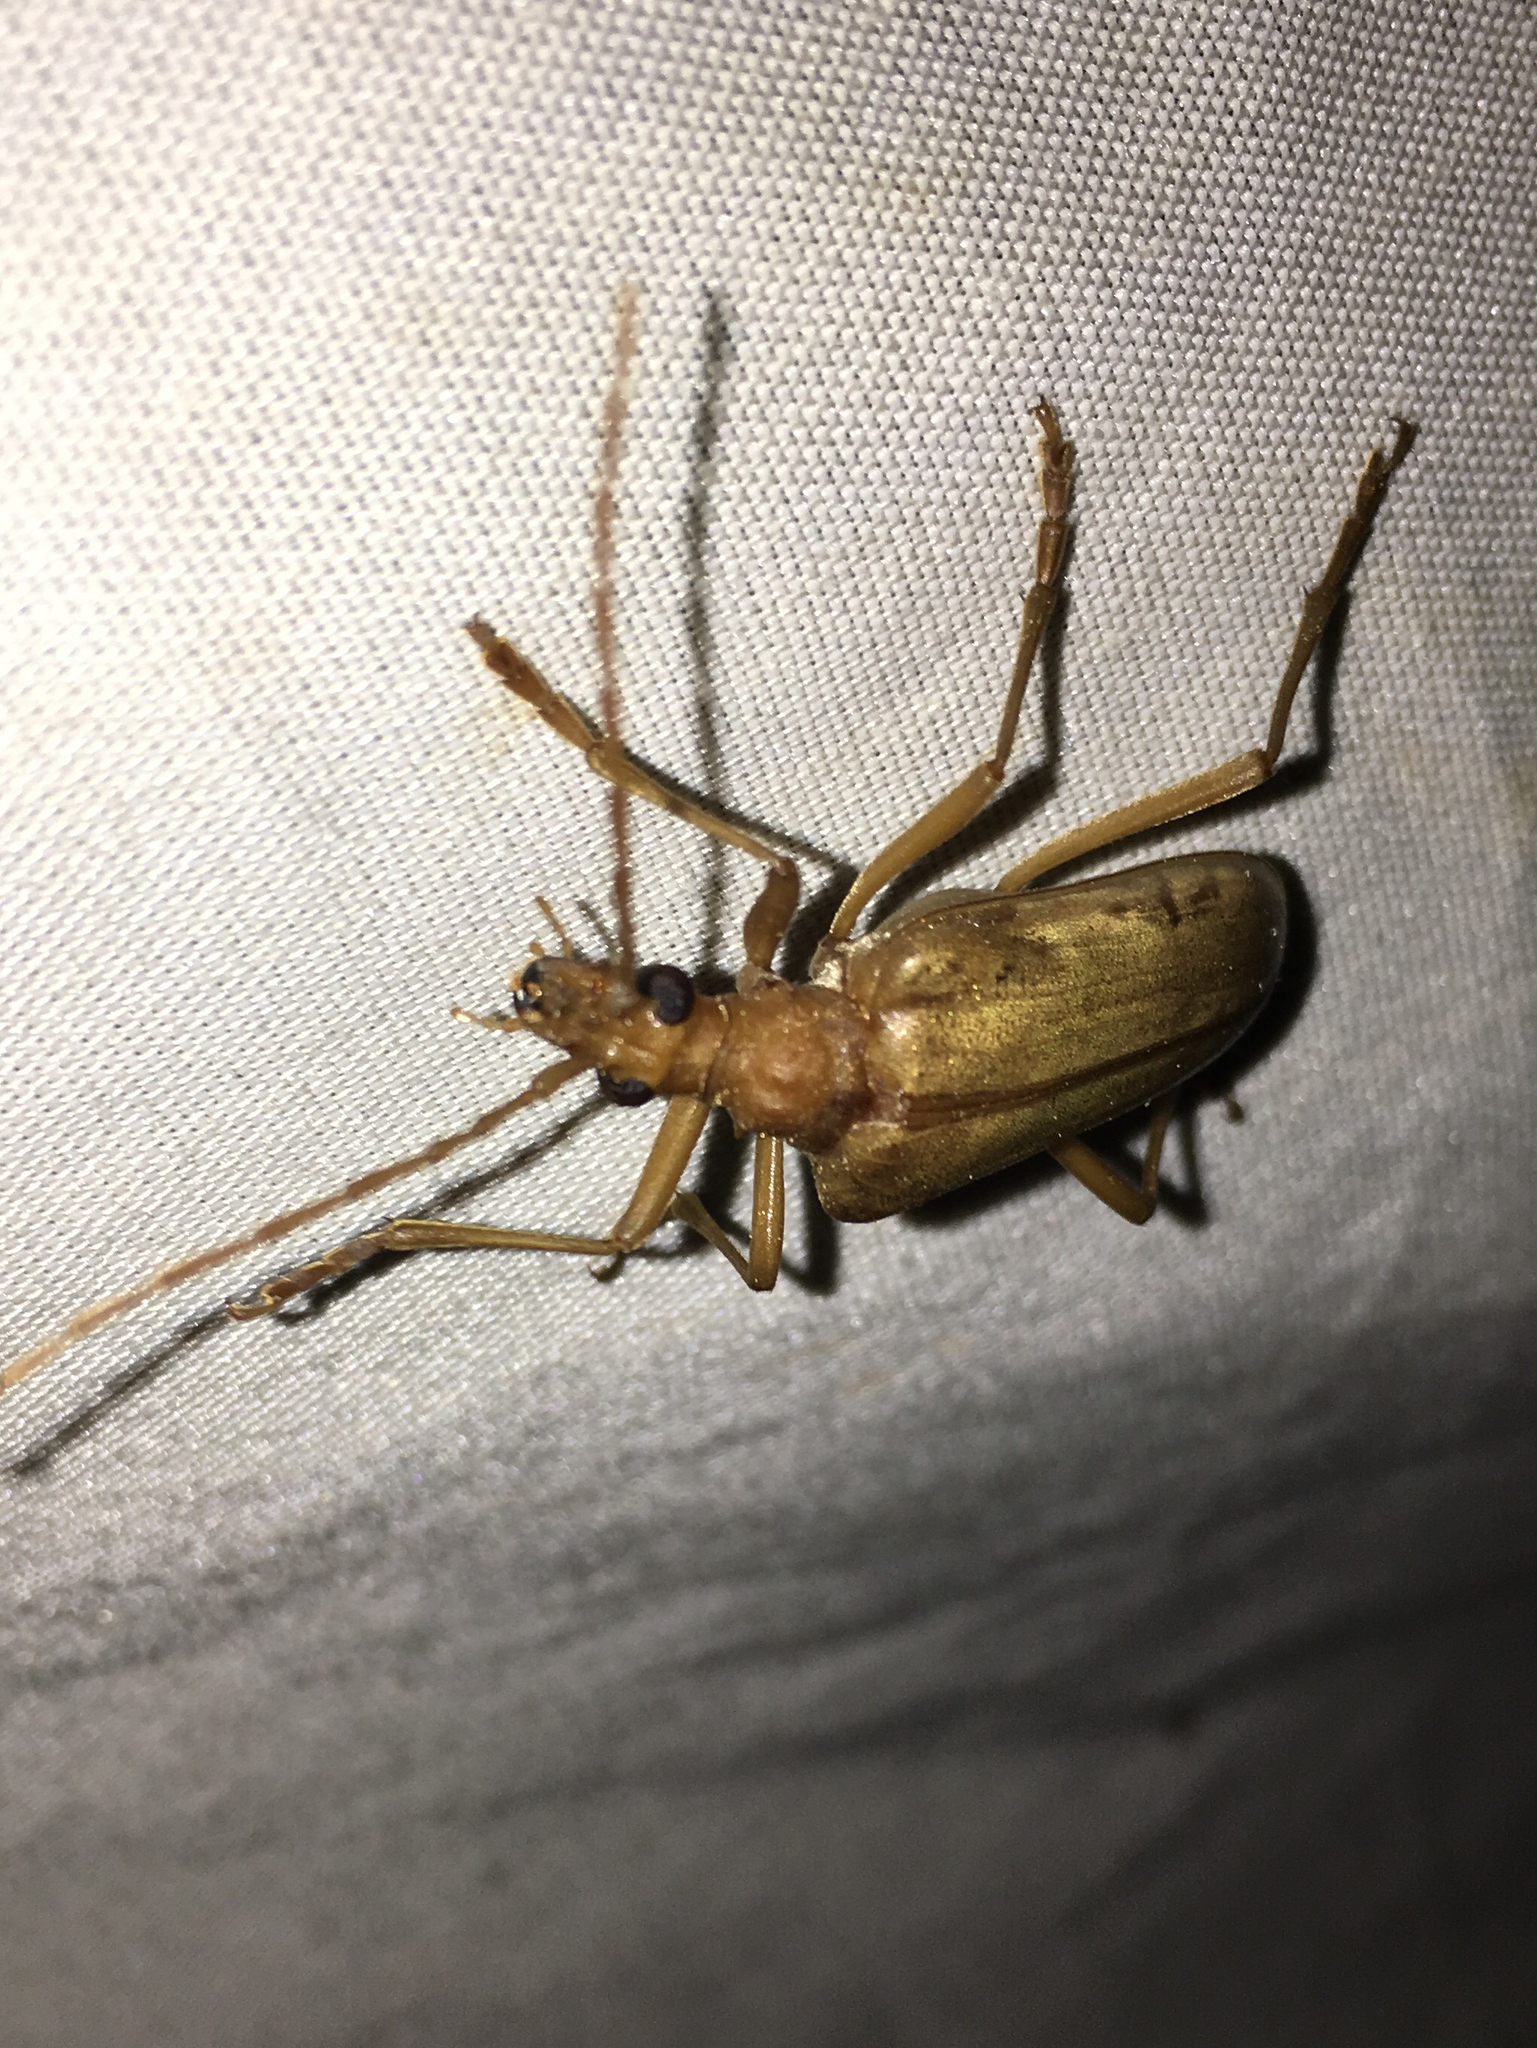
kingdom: Animalia
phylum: Arthropoda
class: Insecta
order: Coleoptera
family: Cerambycidae
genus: Centrodera
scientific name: Centrodera spurca
